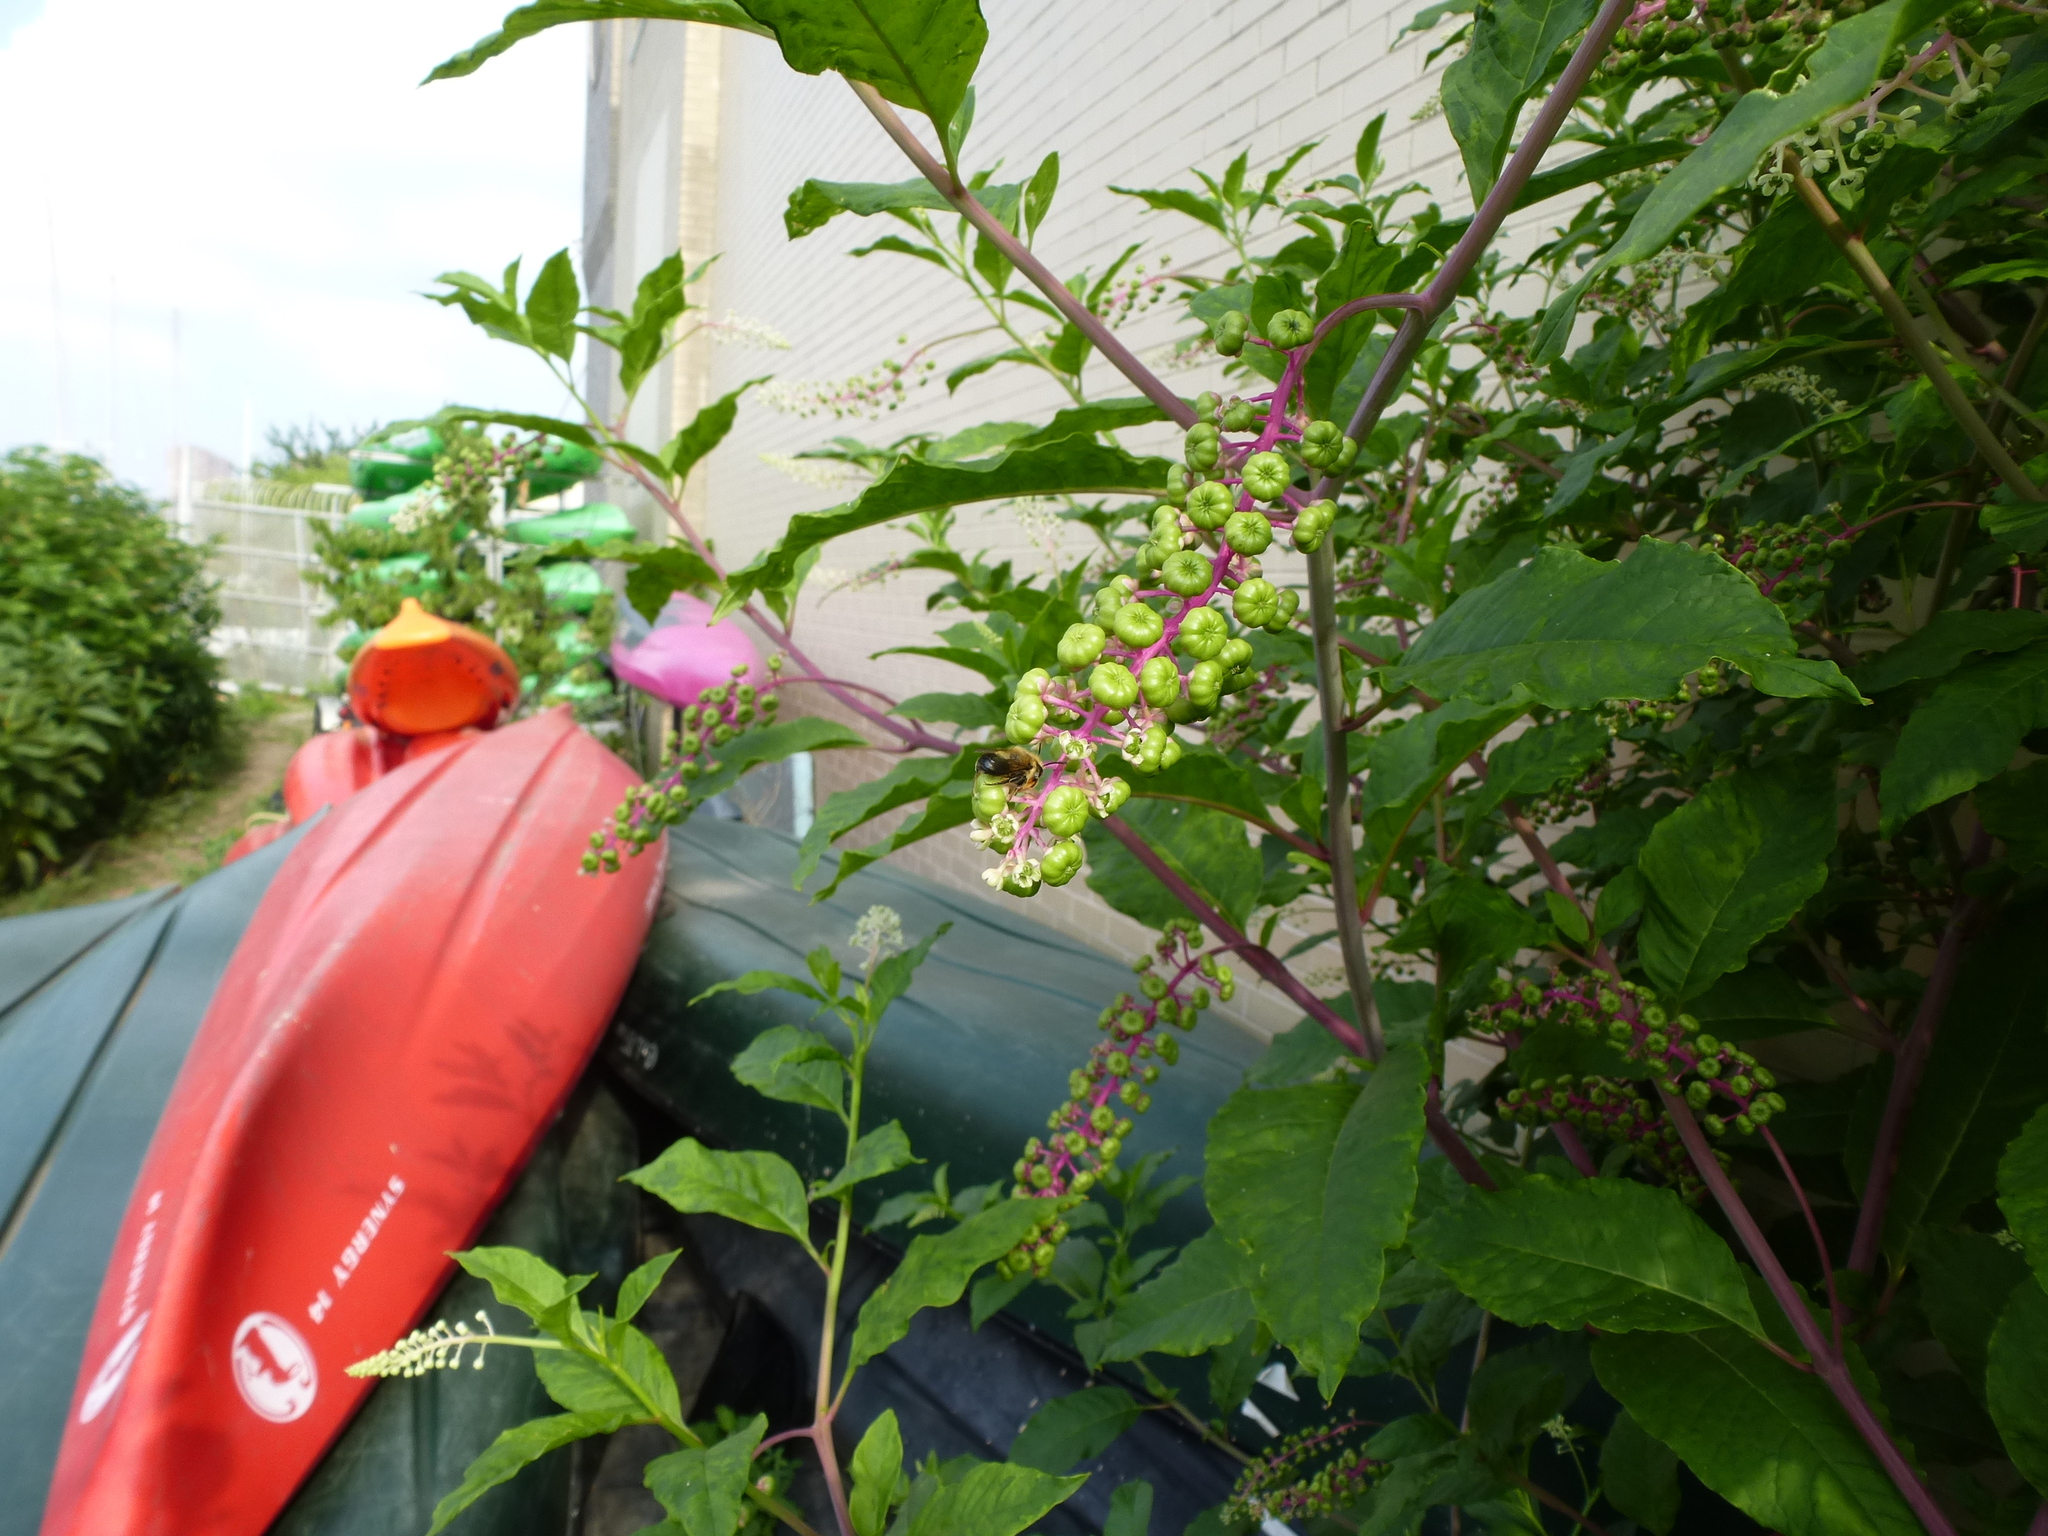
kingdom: Animalia
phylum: Arthropoda
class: Insecta
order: Hymenoptera
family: Megachilidae
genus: Megachile
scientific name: Megachile mucida
